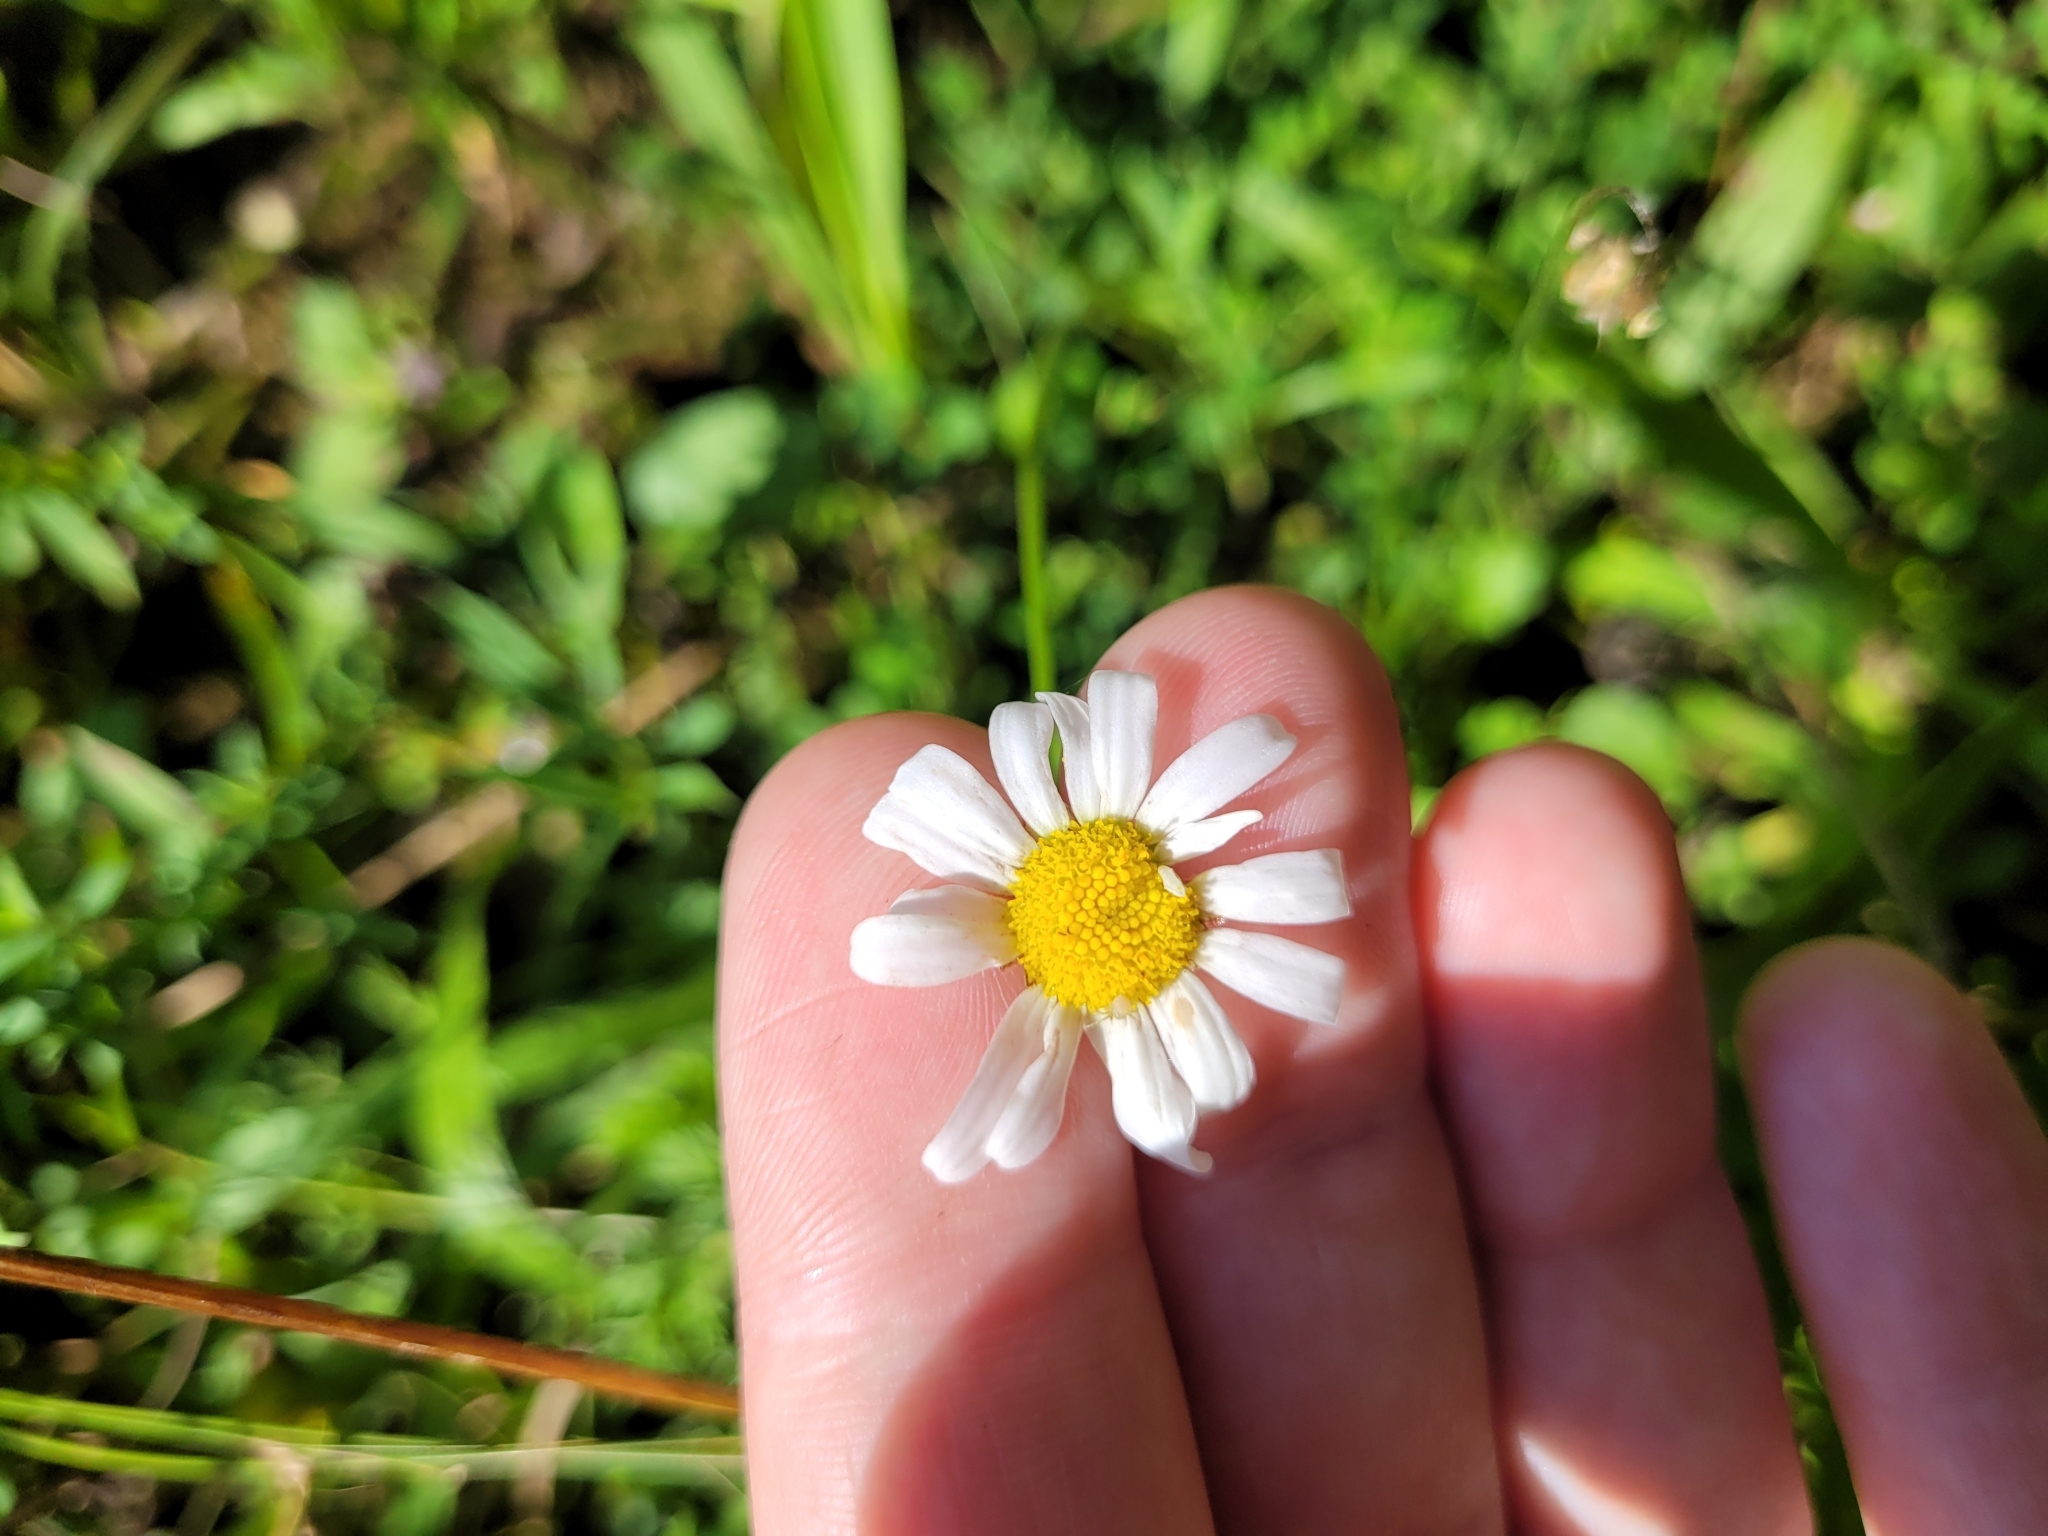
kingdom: Plantae
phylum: Tracheophyta
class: Magnoliopsida
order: Asterales
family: Asteraceae
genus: Leucanthemum
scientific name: Leucanthemum vulgare
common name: Oxeye daisy
